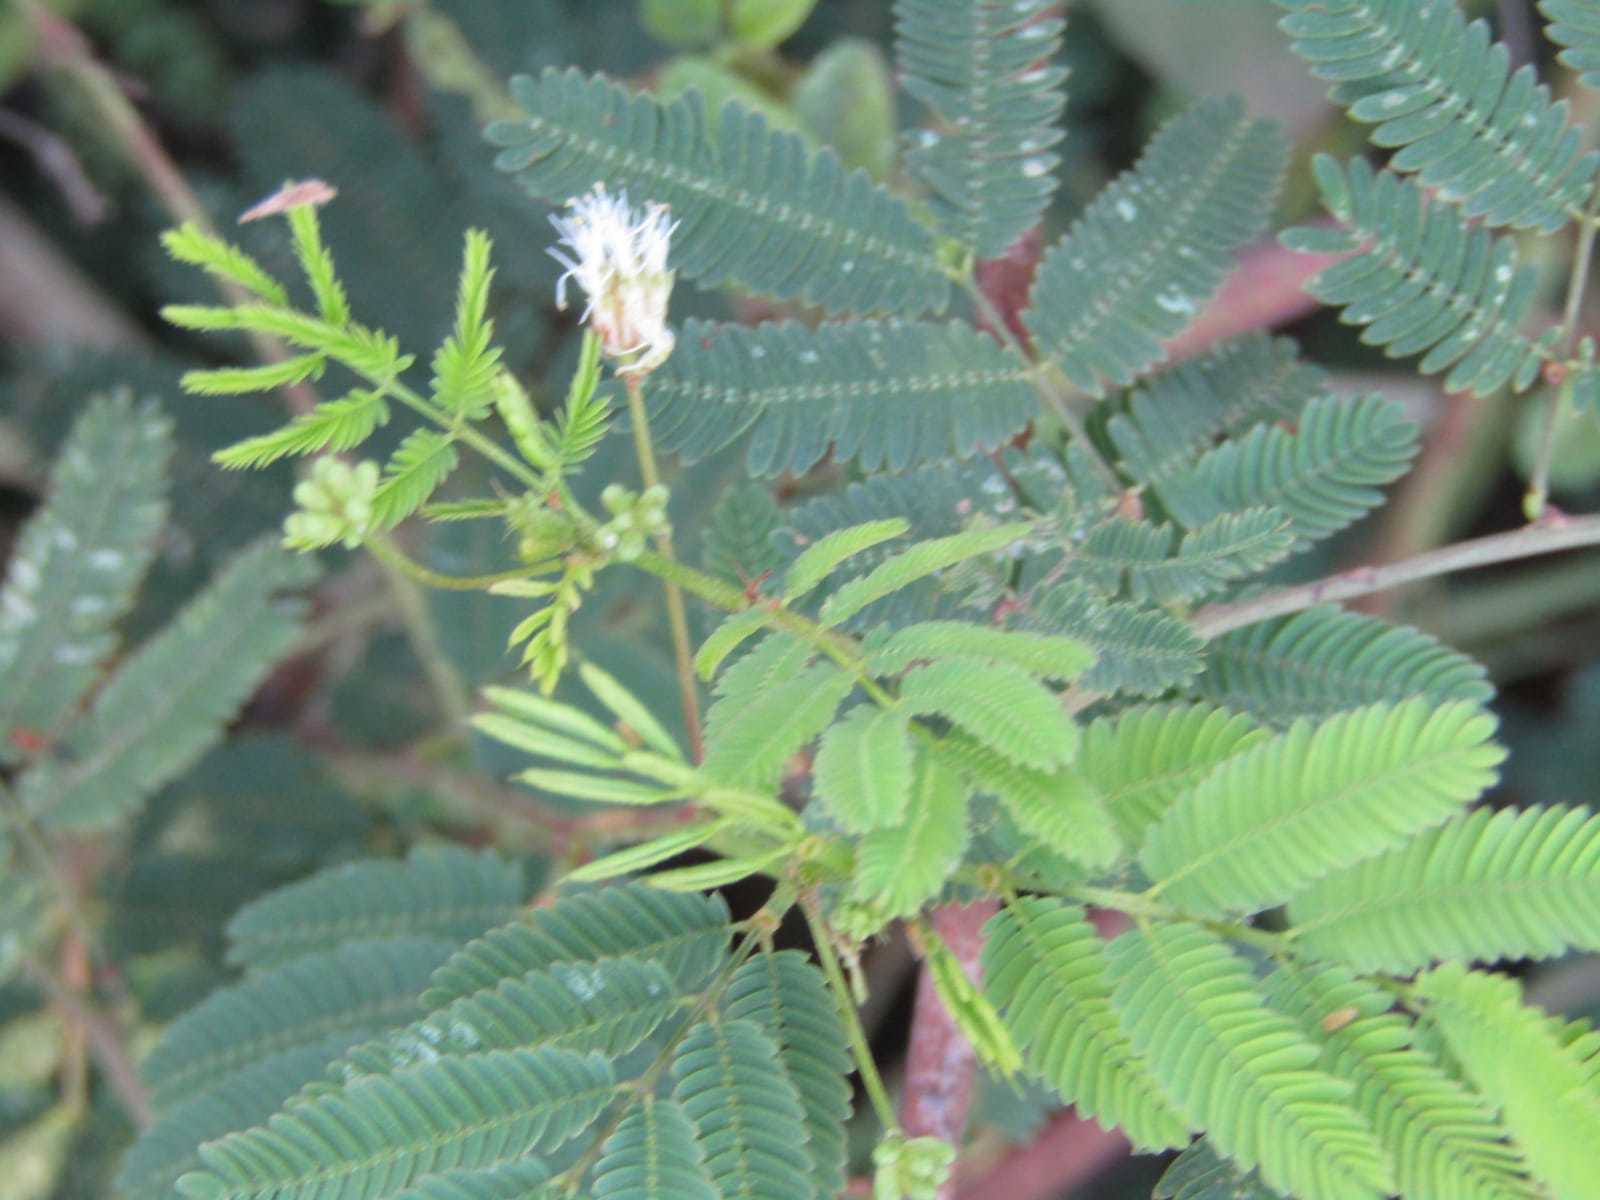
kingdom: Plantae
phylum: Tracheophyta
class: Magnoliopsida
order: Fabales
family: Fabaceae
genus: Desmanthus
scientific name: Desmanthus pernambucanus
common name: Pigeon bundleflower
